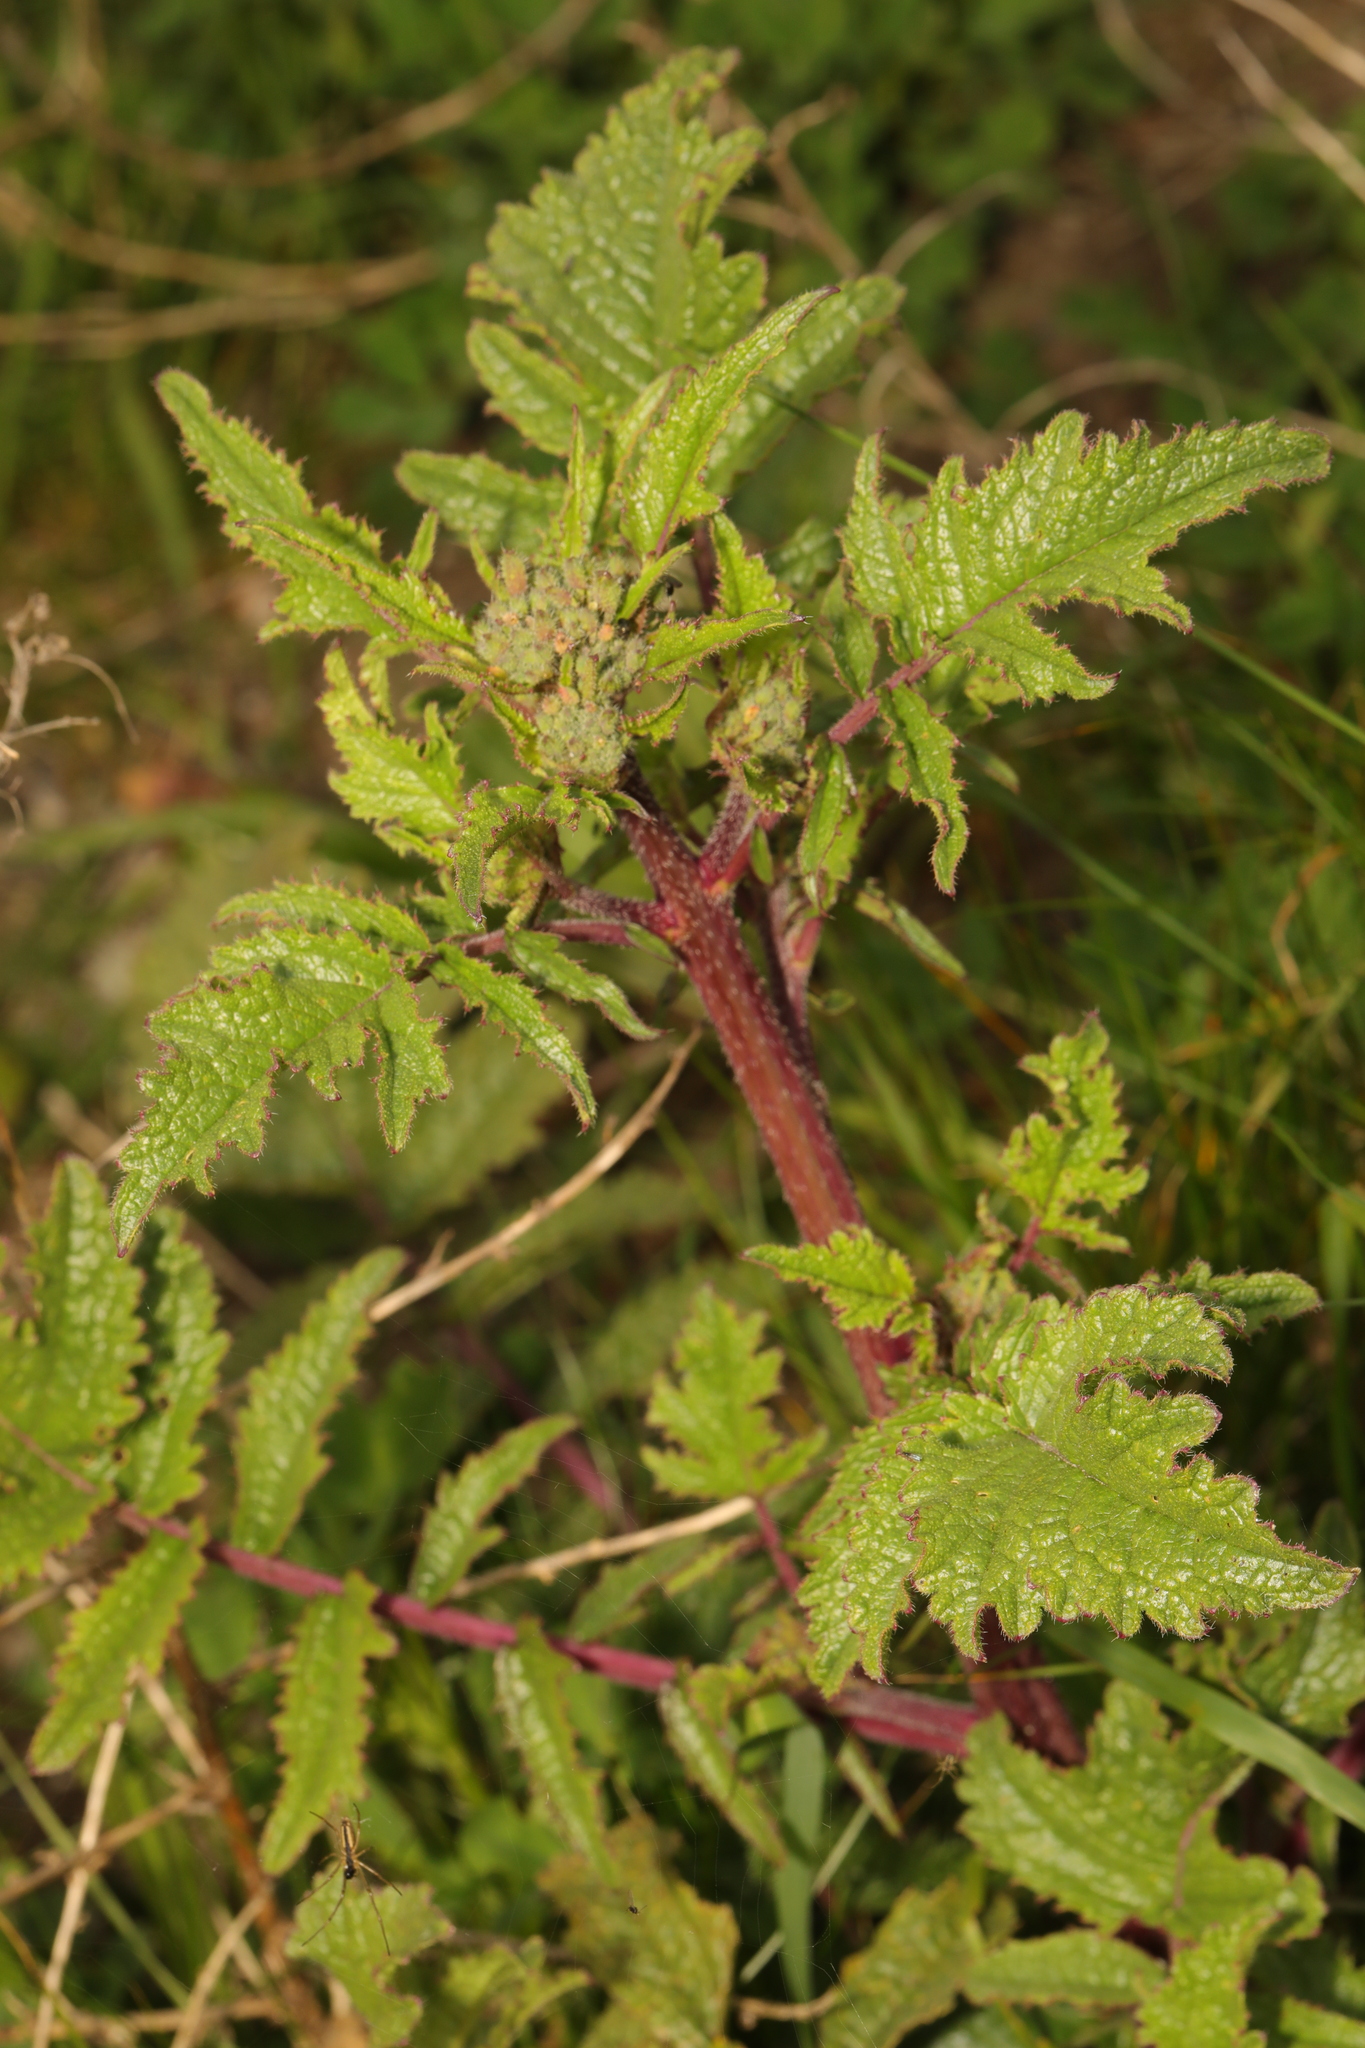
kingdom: Plantae
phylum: Tracheophyta
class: Magnoliopsida
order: Brassicales
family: Brassicaceae
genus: Raphanus
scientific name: Raphanus raphanistrum
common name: Wild radish
